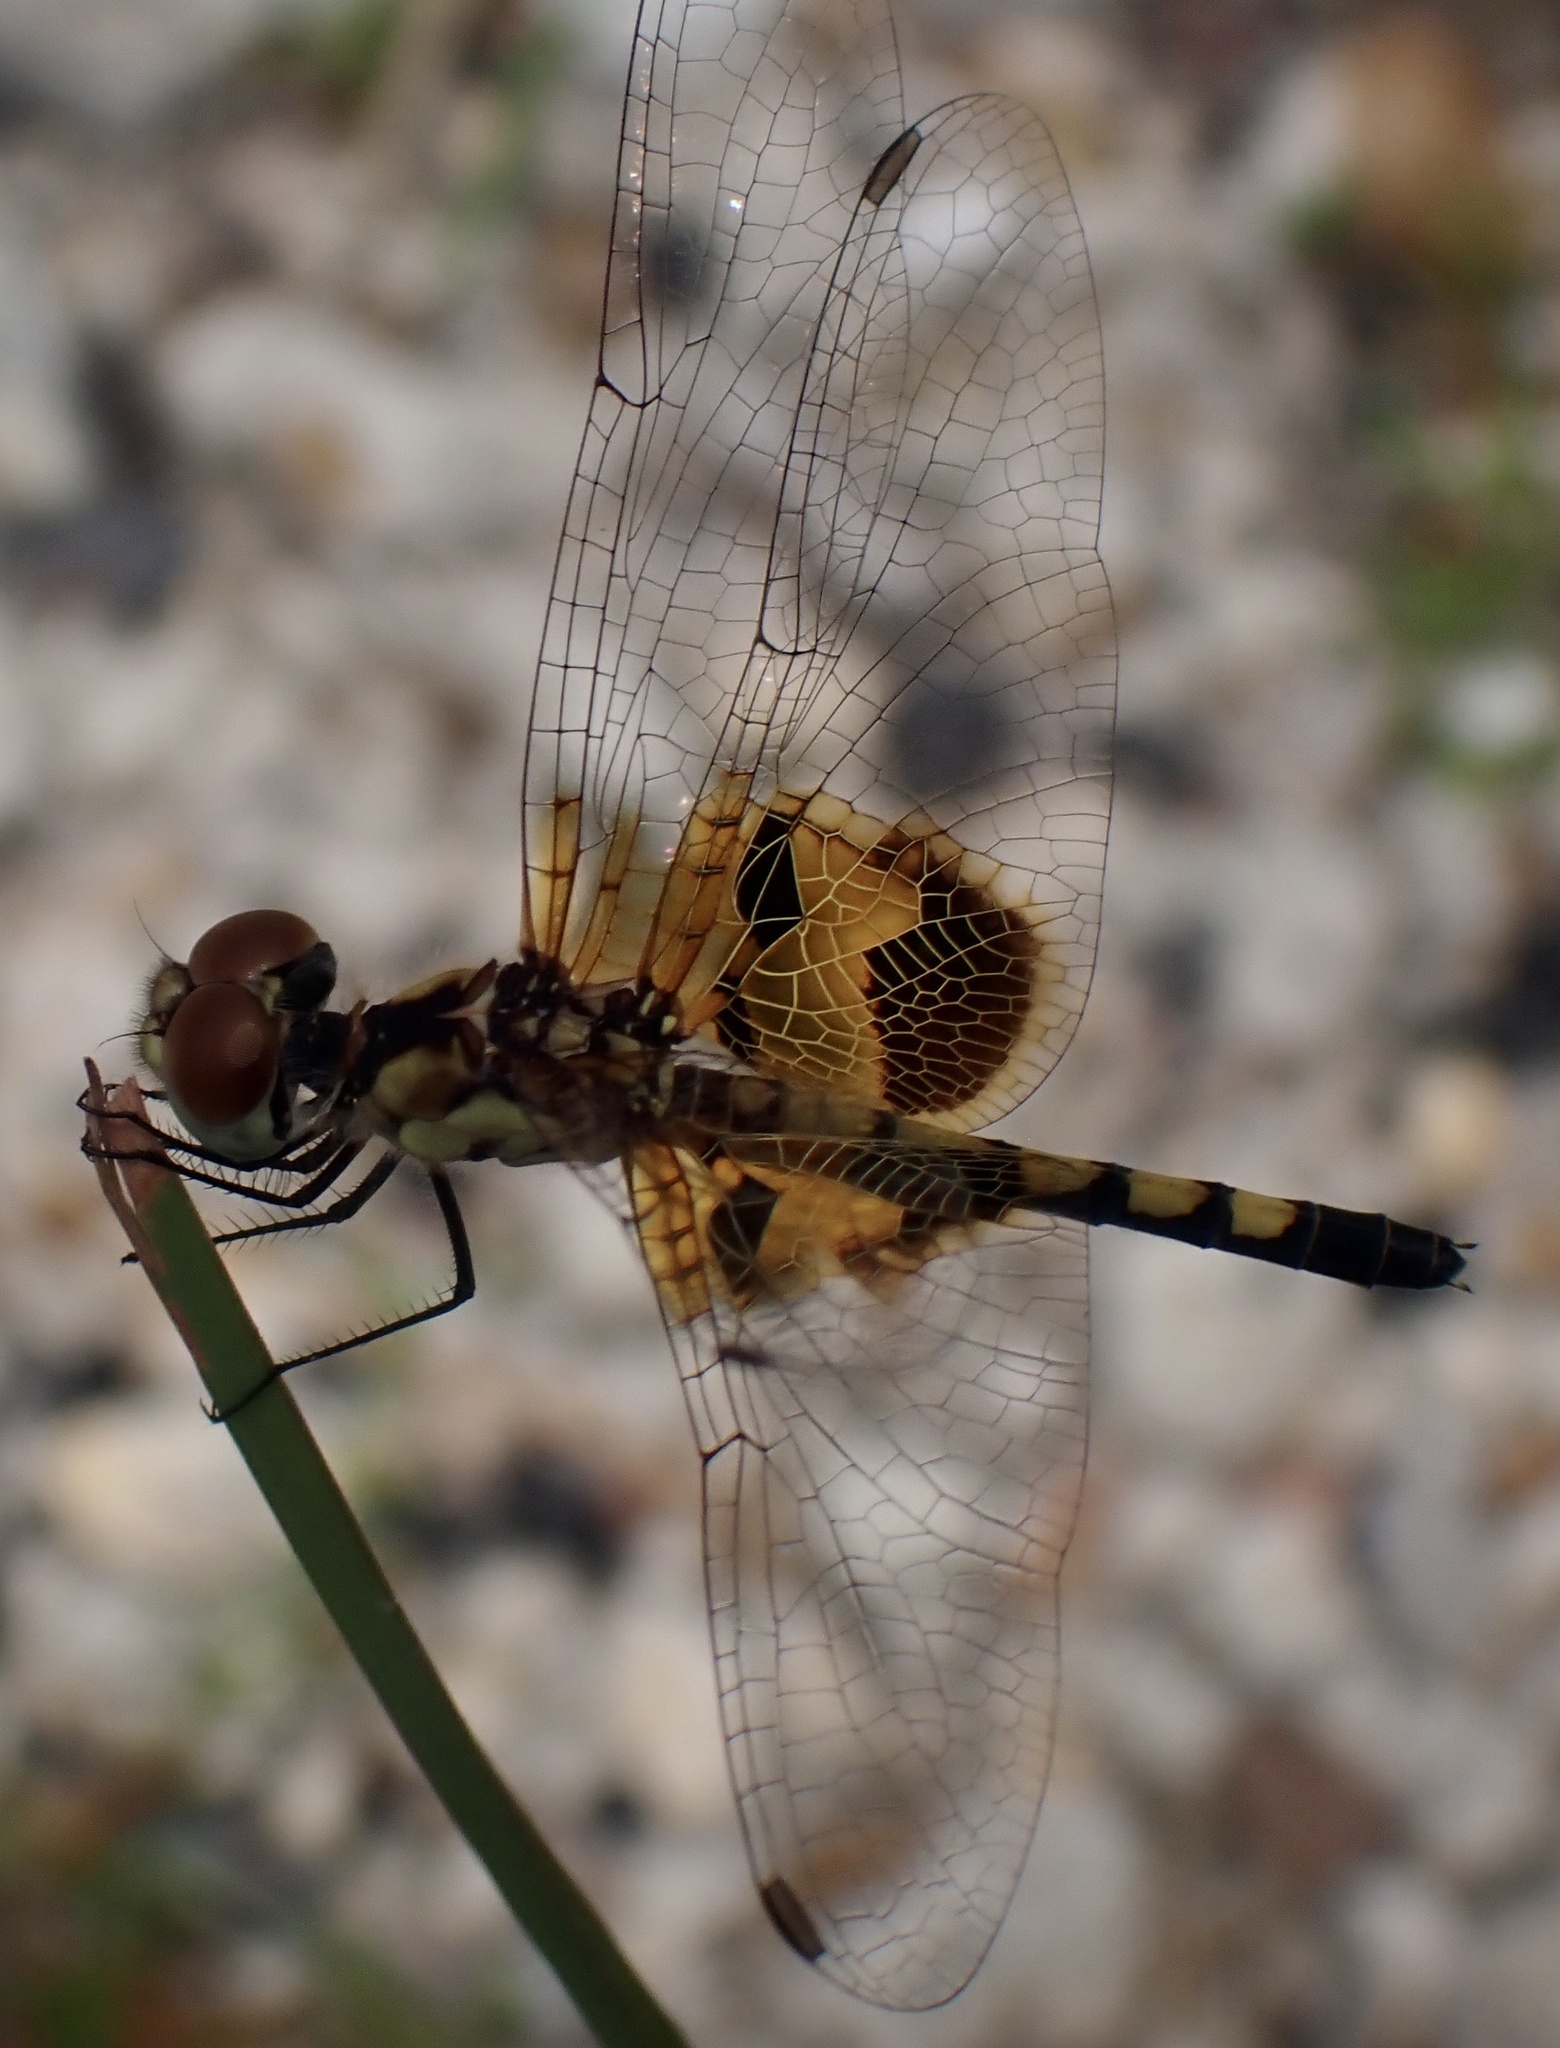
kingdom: Animalia
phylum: Arthropoda
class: Insecta
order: Odonata
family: Libellulidae
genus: Celithemis
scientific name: Celithemis amanda
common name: Amanda's pennant
